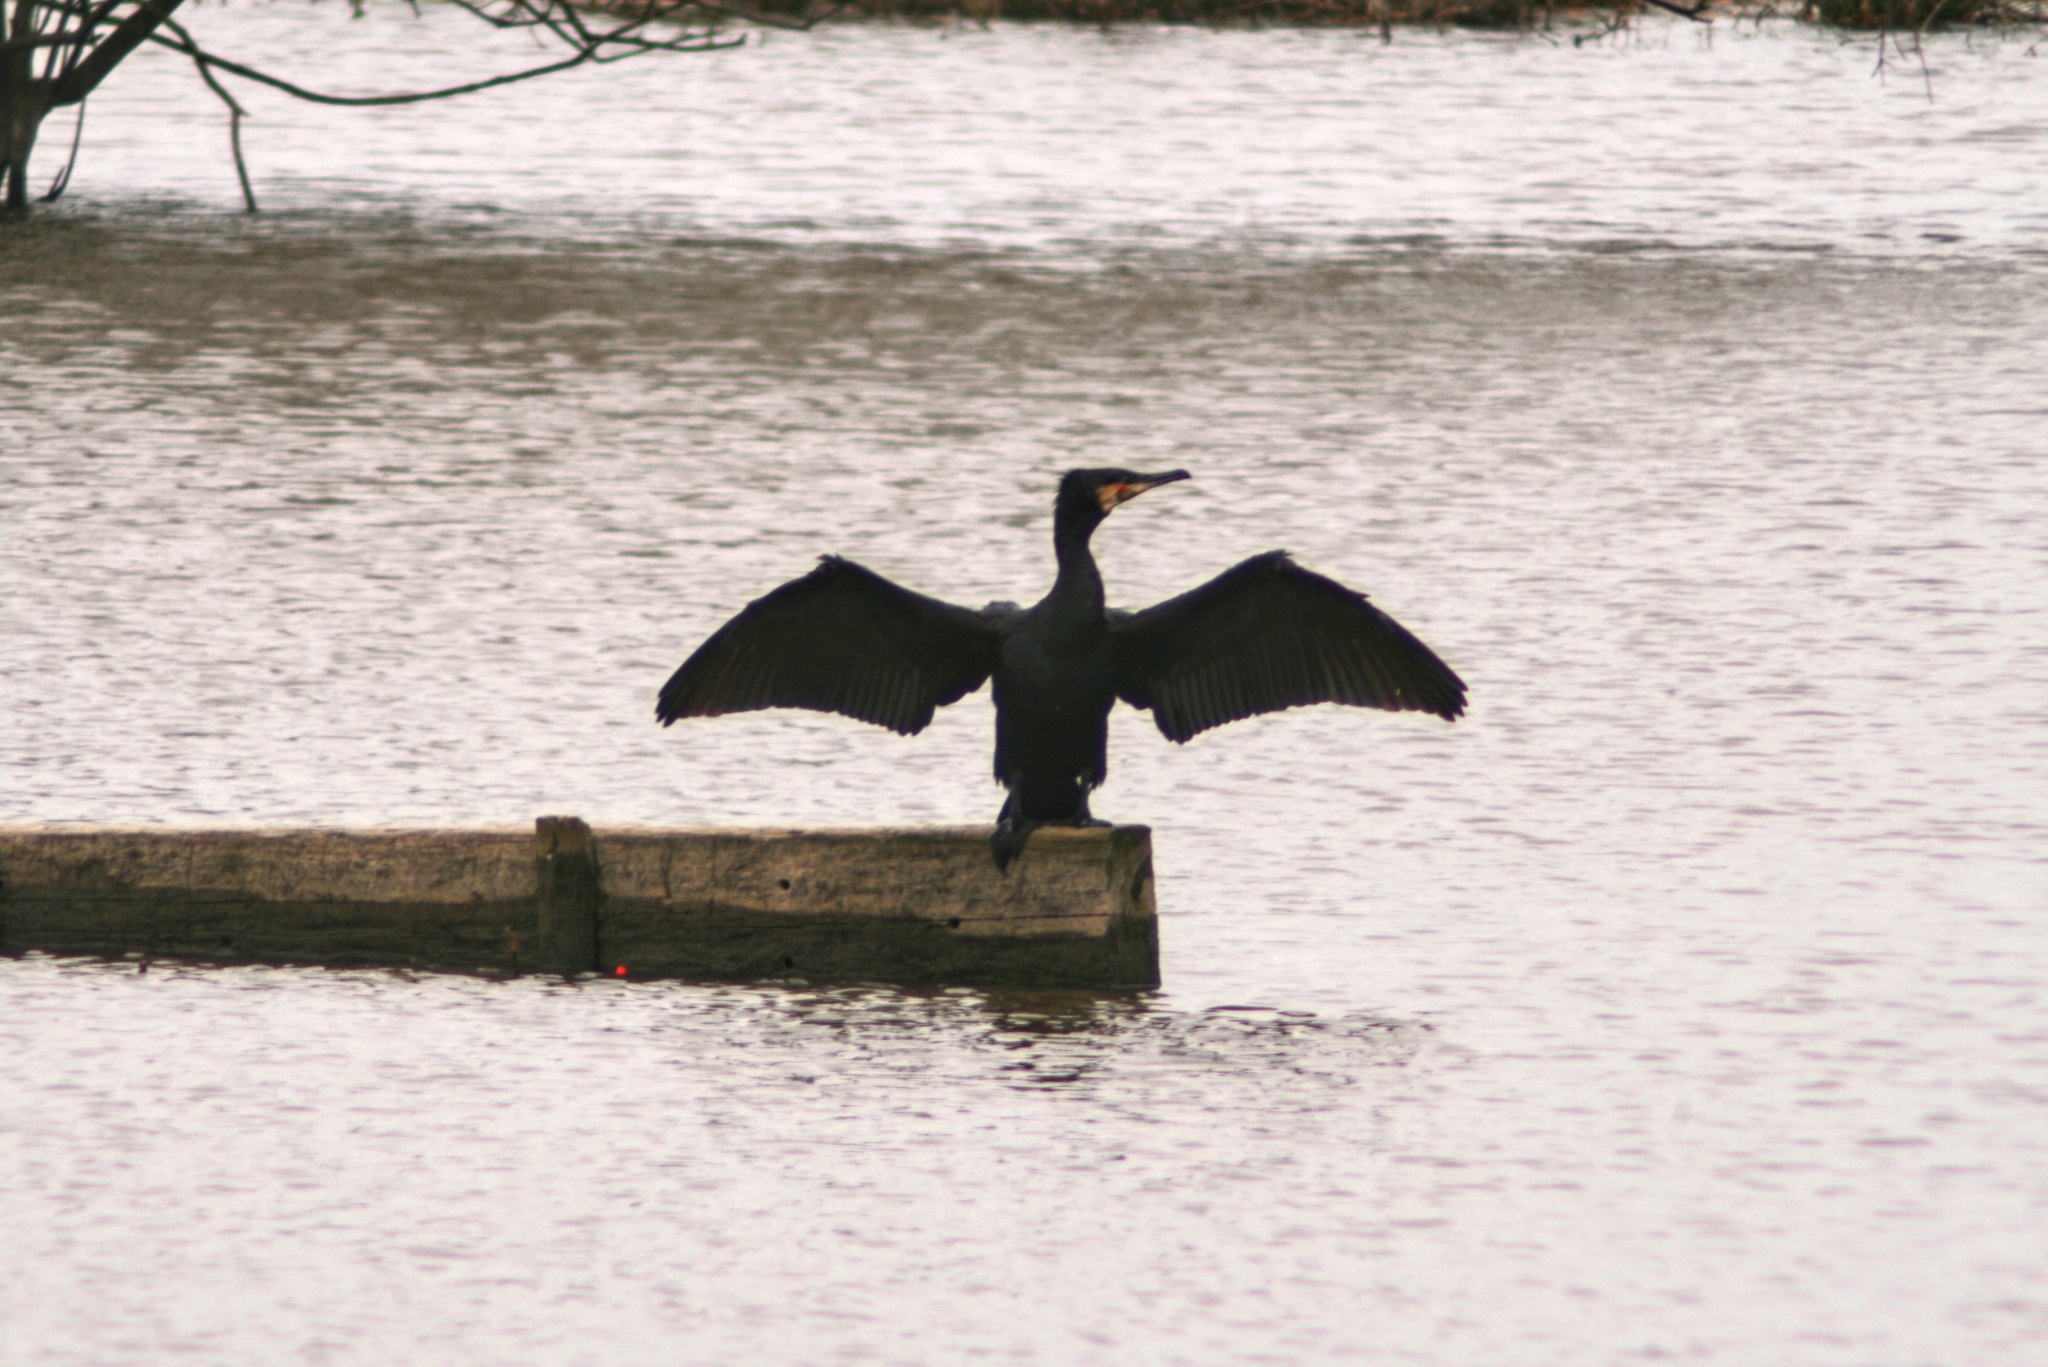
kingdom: Animalia
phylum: Chordata
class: Aves
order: Suliformes
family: Phalacrocoracidae
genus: Phalacrocorax
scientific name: Phalacrocorax carbo
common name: Great cormorant
